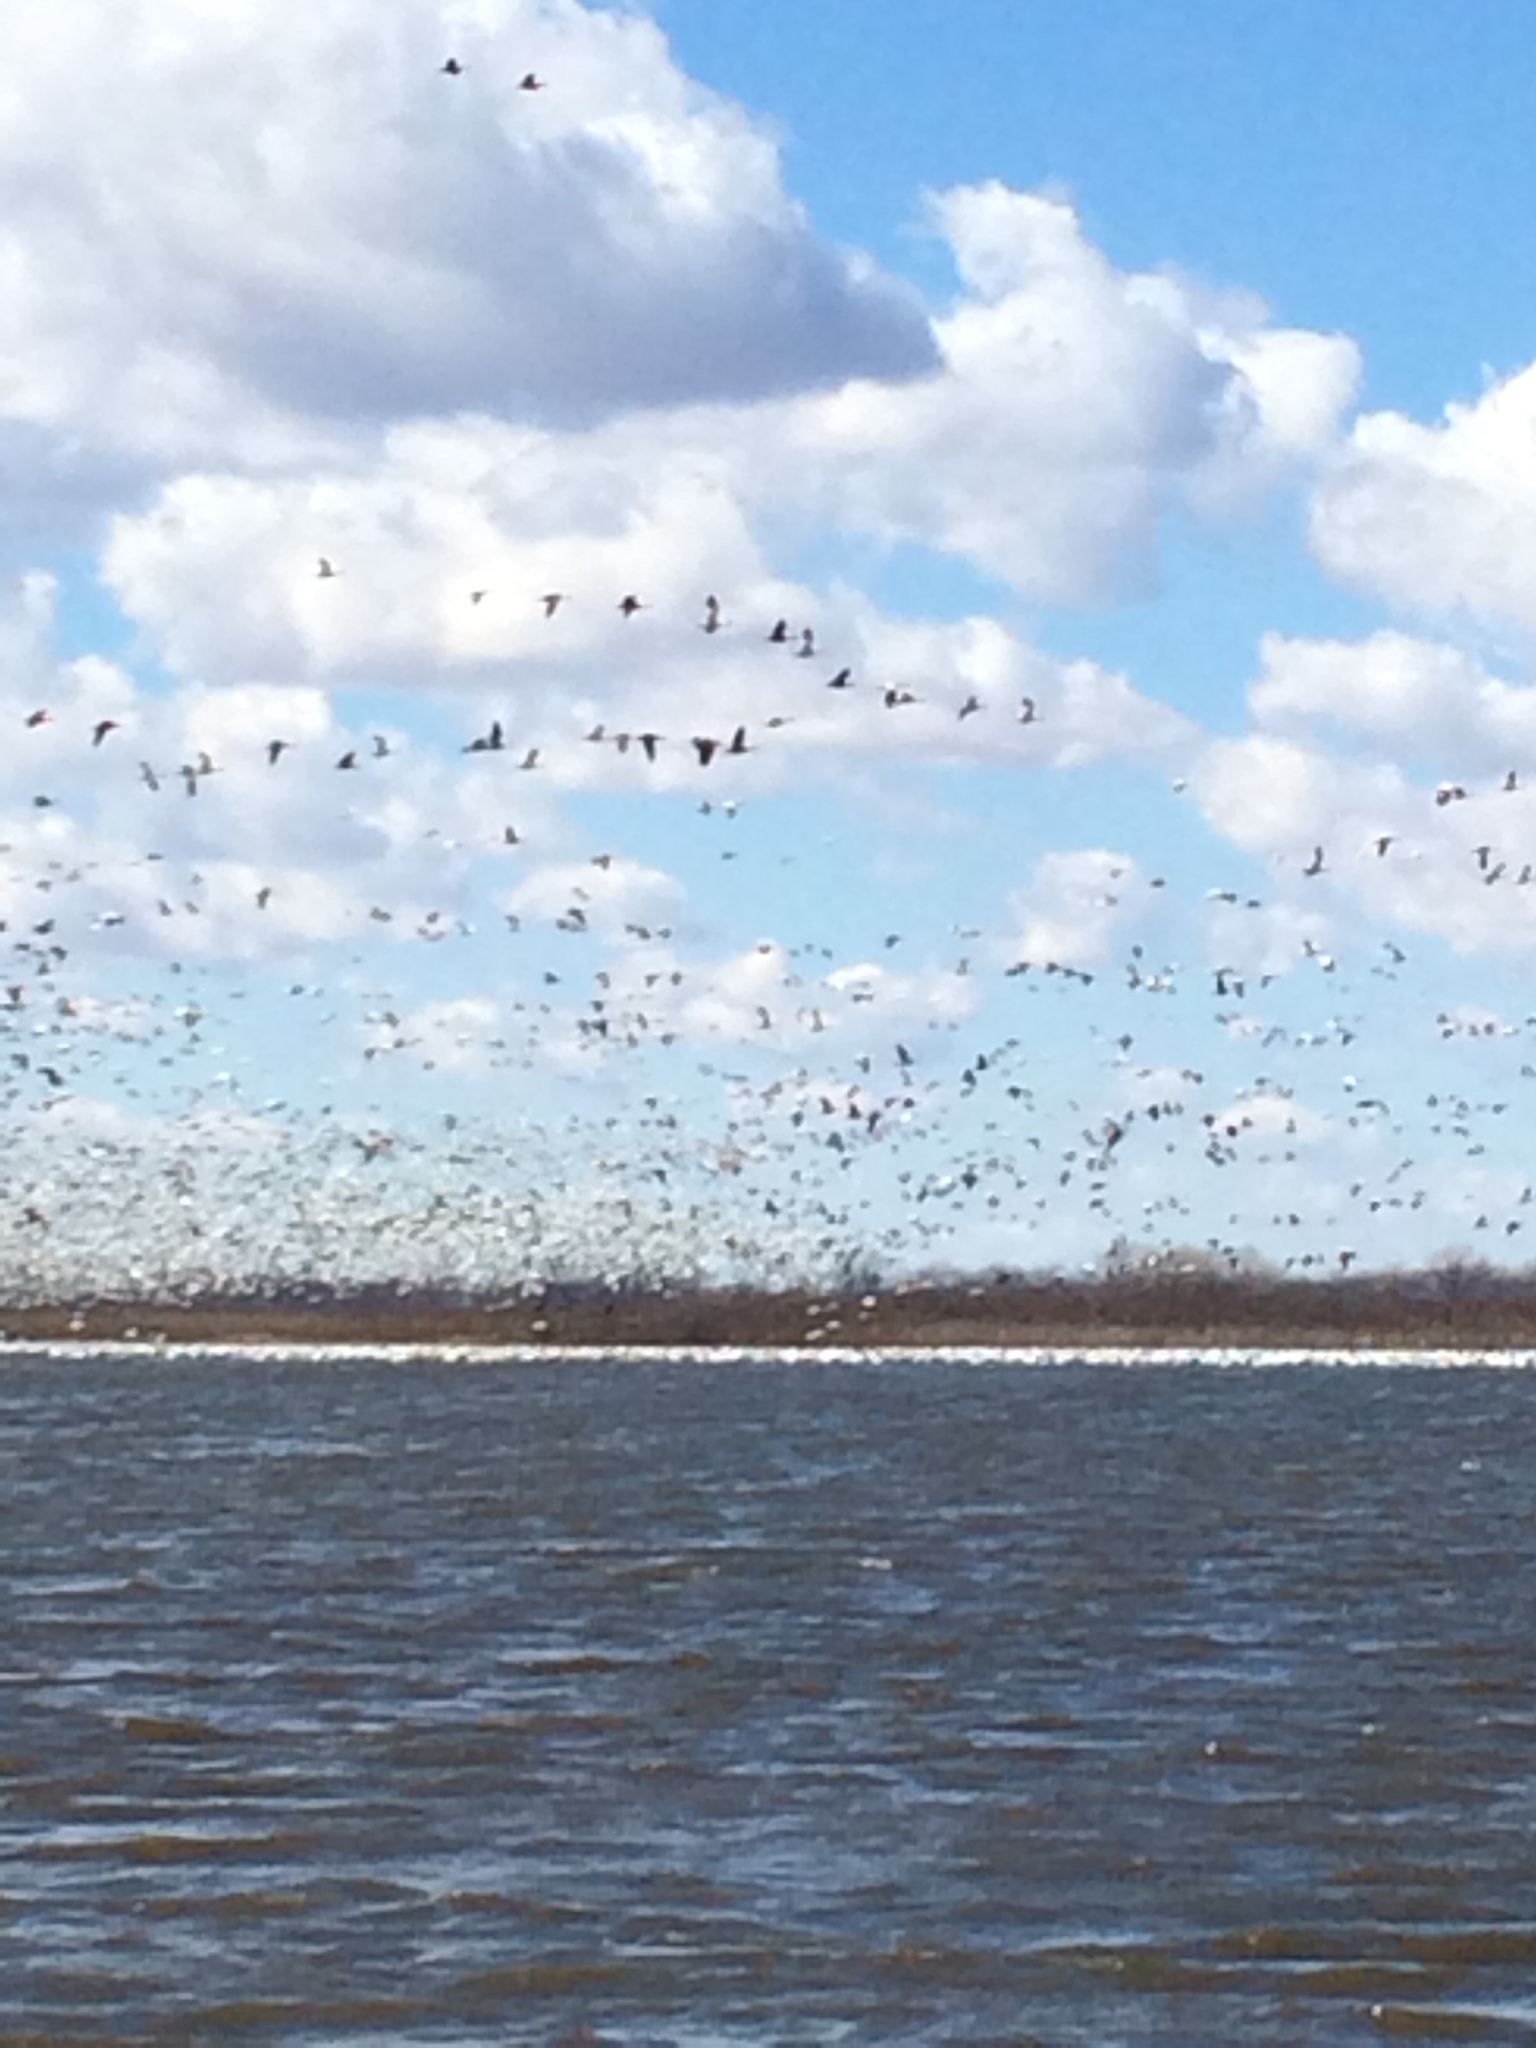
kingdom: Animalia
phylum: Chordata
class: Aves
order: Anseriformes
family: Anatidae
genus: Anser
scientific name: Anser caerulescens
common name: Snow goose
